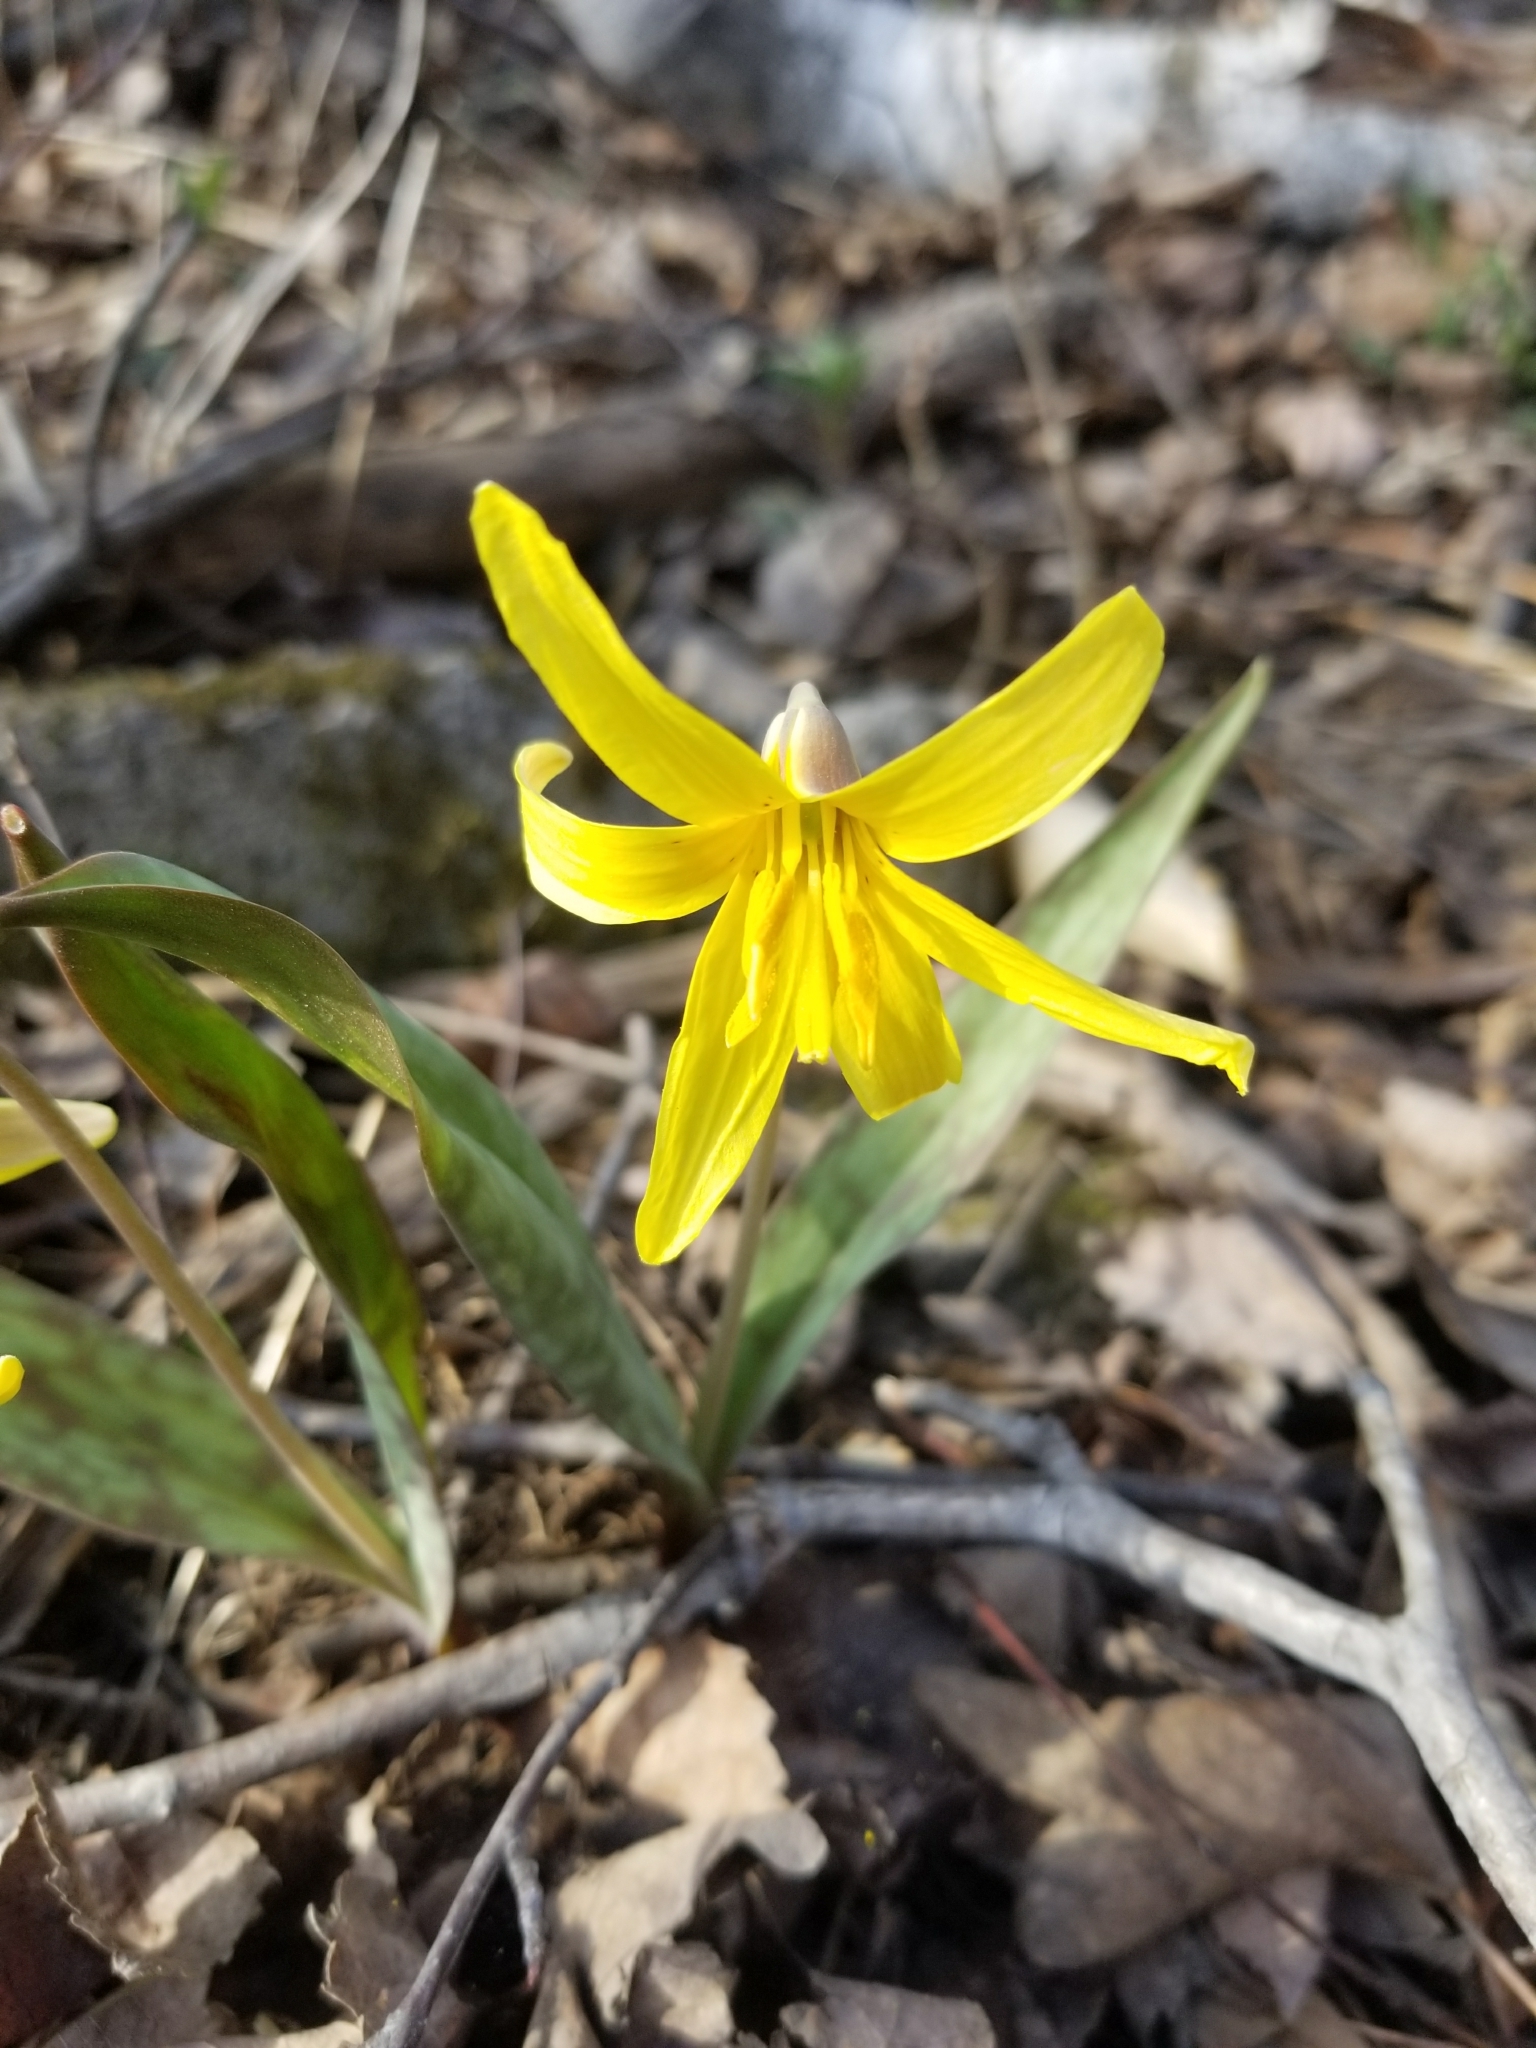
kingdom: Plantae
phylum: Tracheophyta
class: Liliopsida
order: Liliales
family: Liliaceae
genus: Erythronium
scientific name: Erythronium americanum
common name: Yellow adder's-tongue
